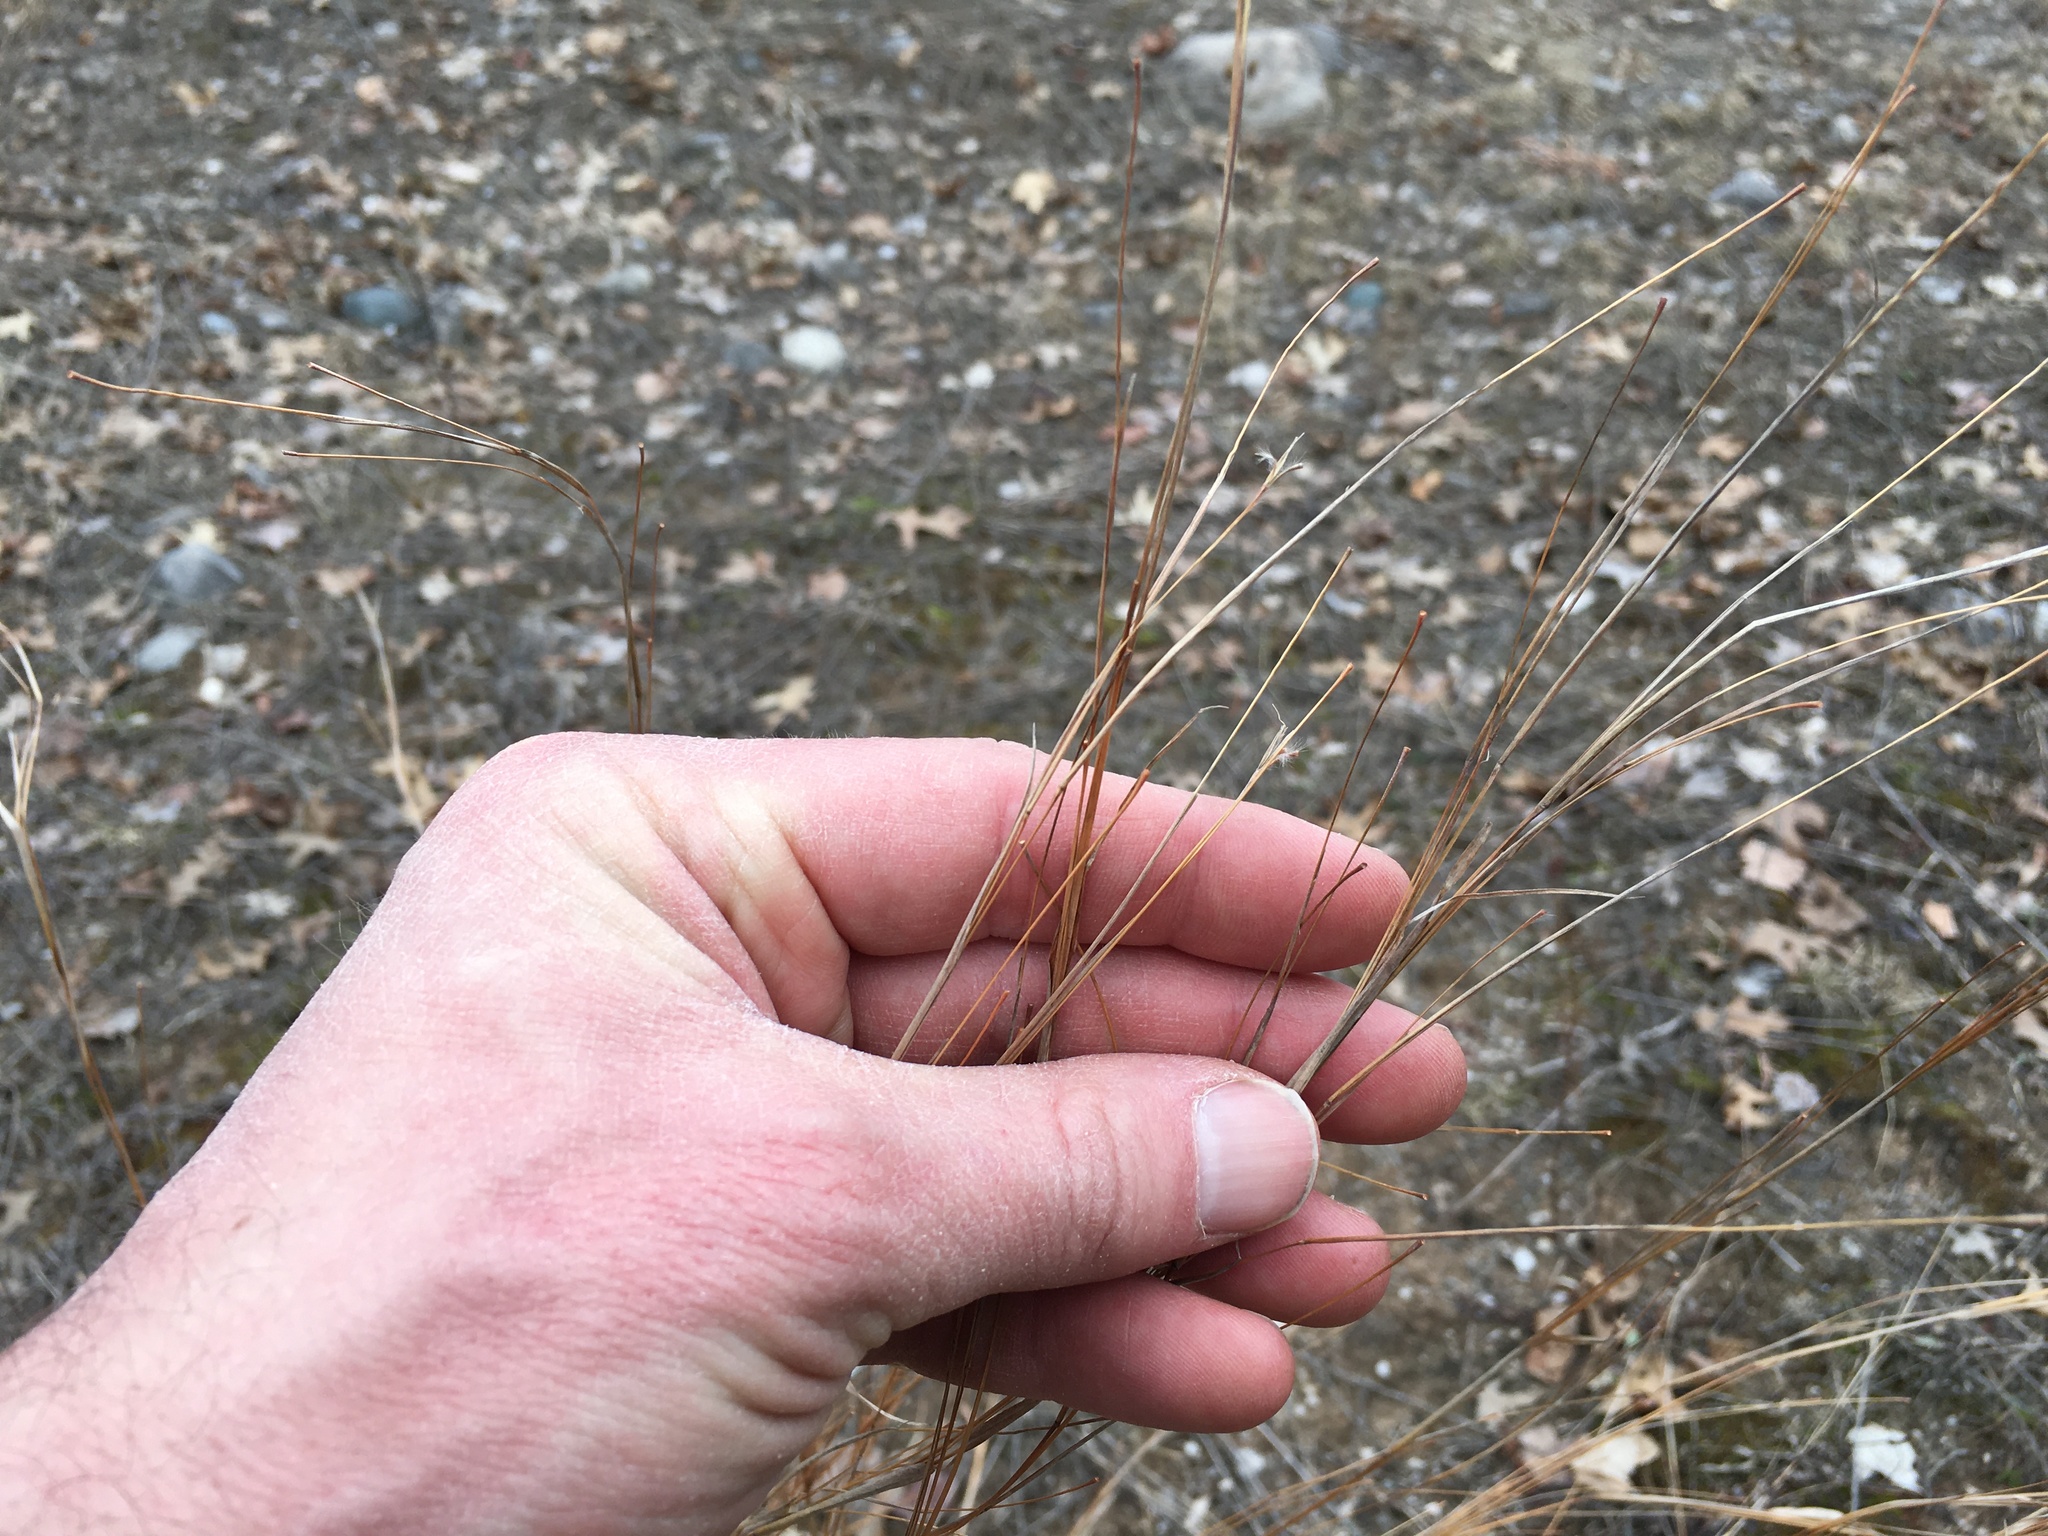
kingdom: Plantae
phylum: Tracheophyta
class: Liliopsida
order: Poales
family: Poaceae
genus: Schizachyrium
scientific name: Schizachyrium scoparium
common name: Little bluestem
